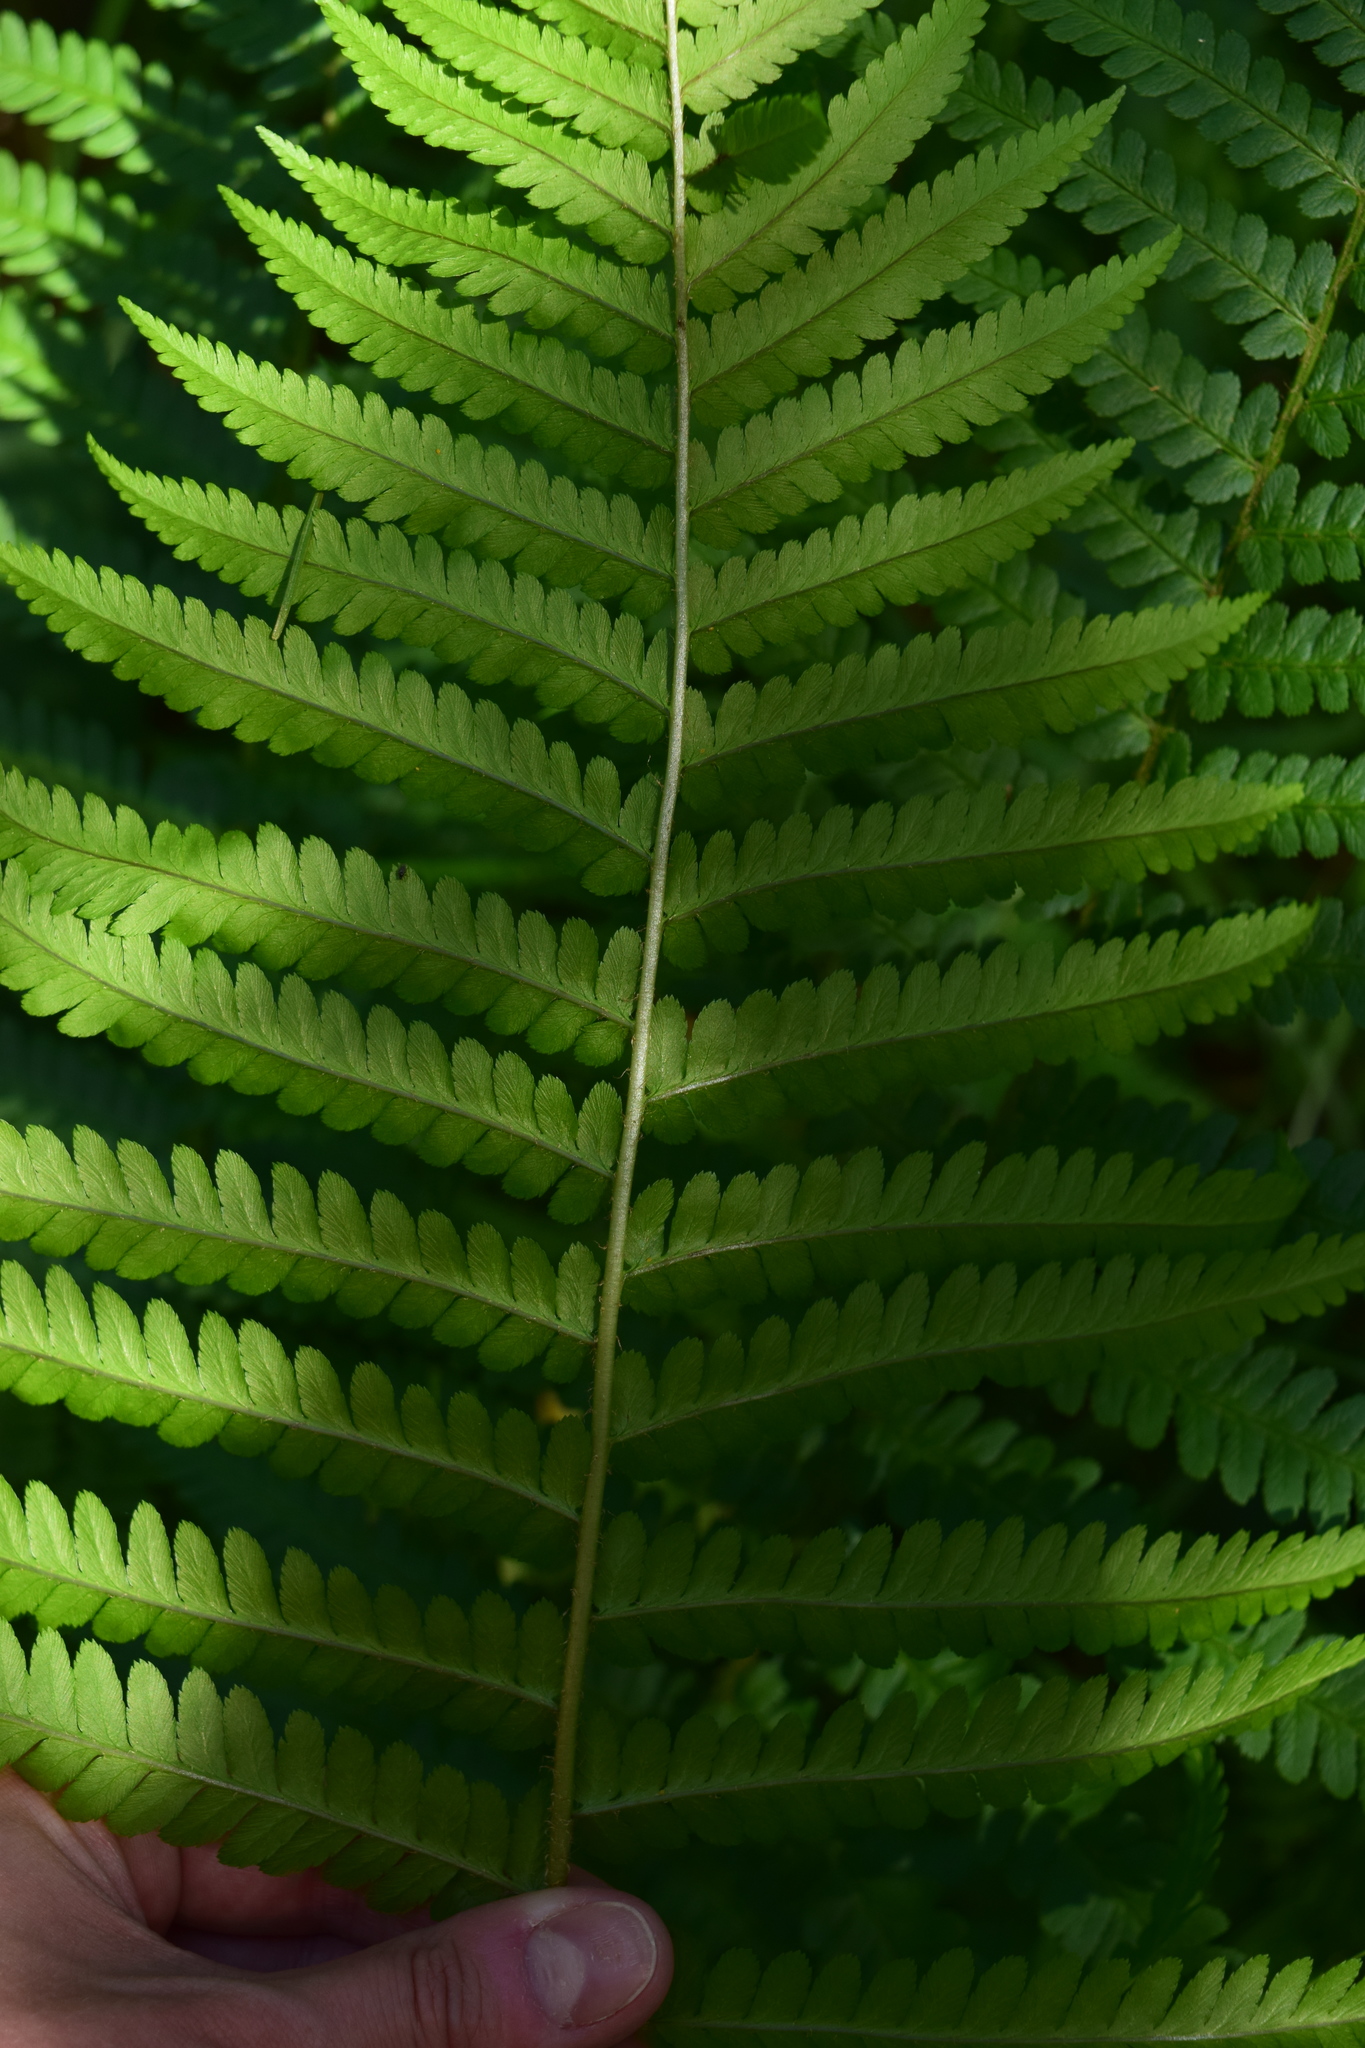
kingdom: Plantae
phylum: Tracheophyta
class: Polypodiopsida
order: Polypodiales
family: Dryopteridaceae
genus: Dryopteris
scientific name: Dryopteris filix-mas
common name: Male fern
